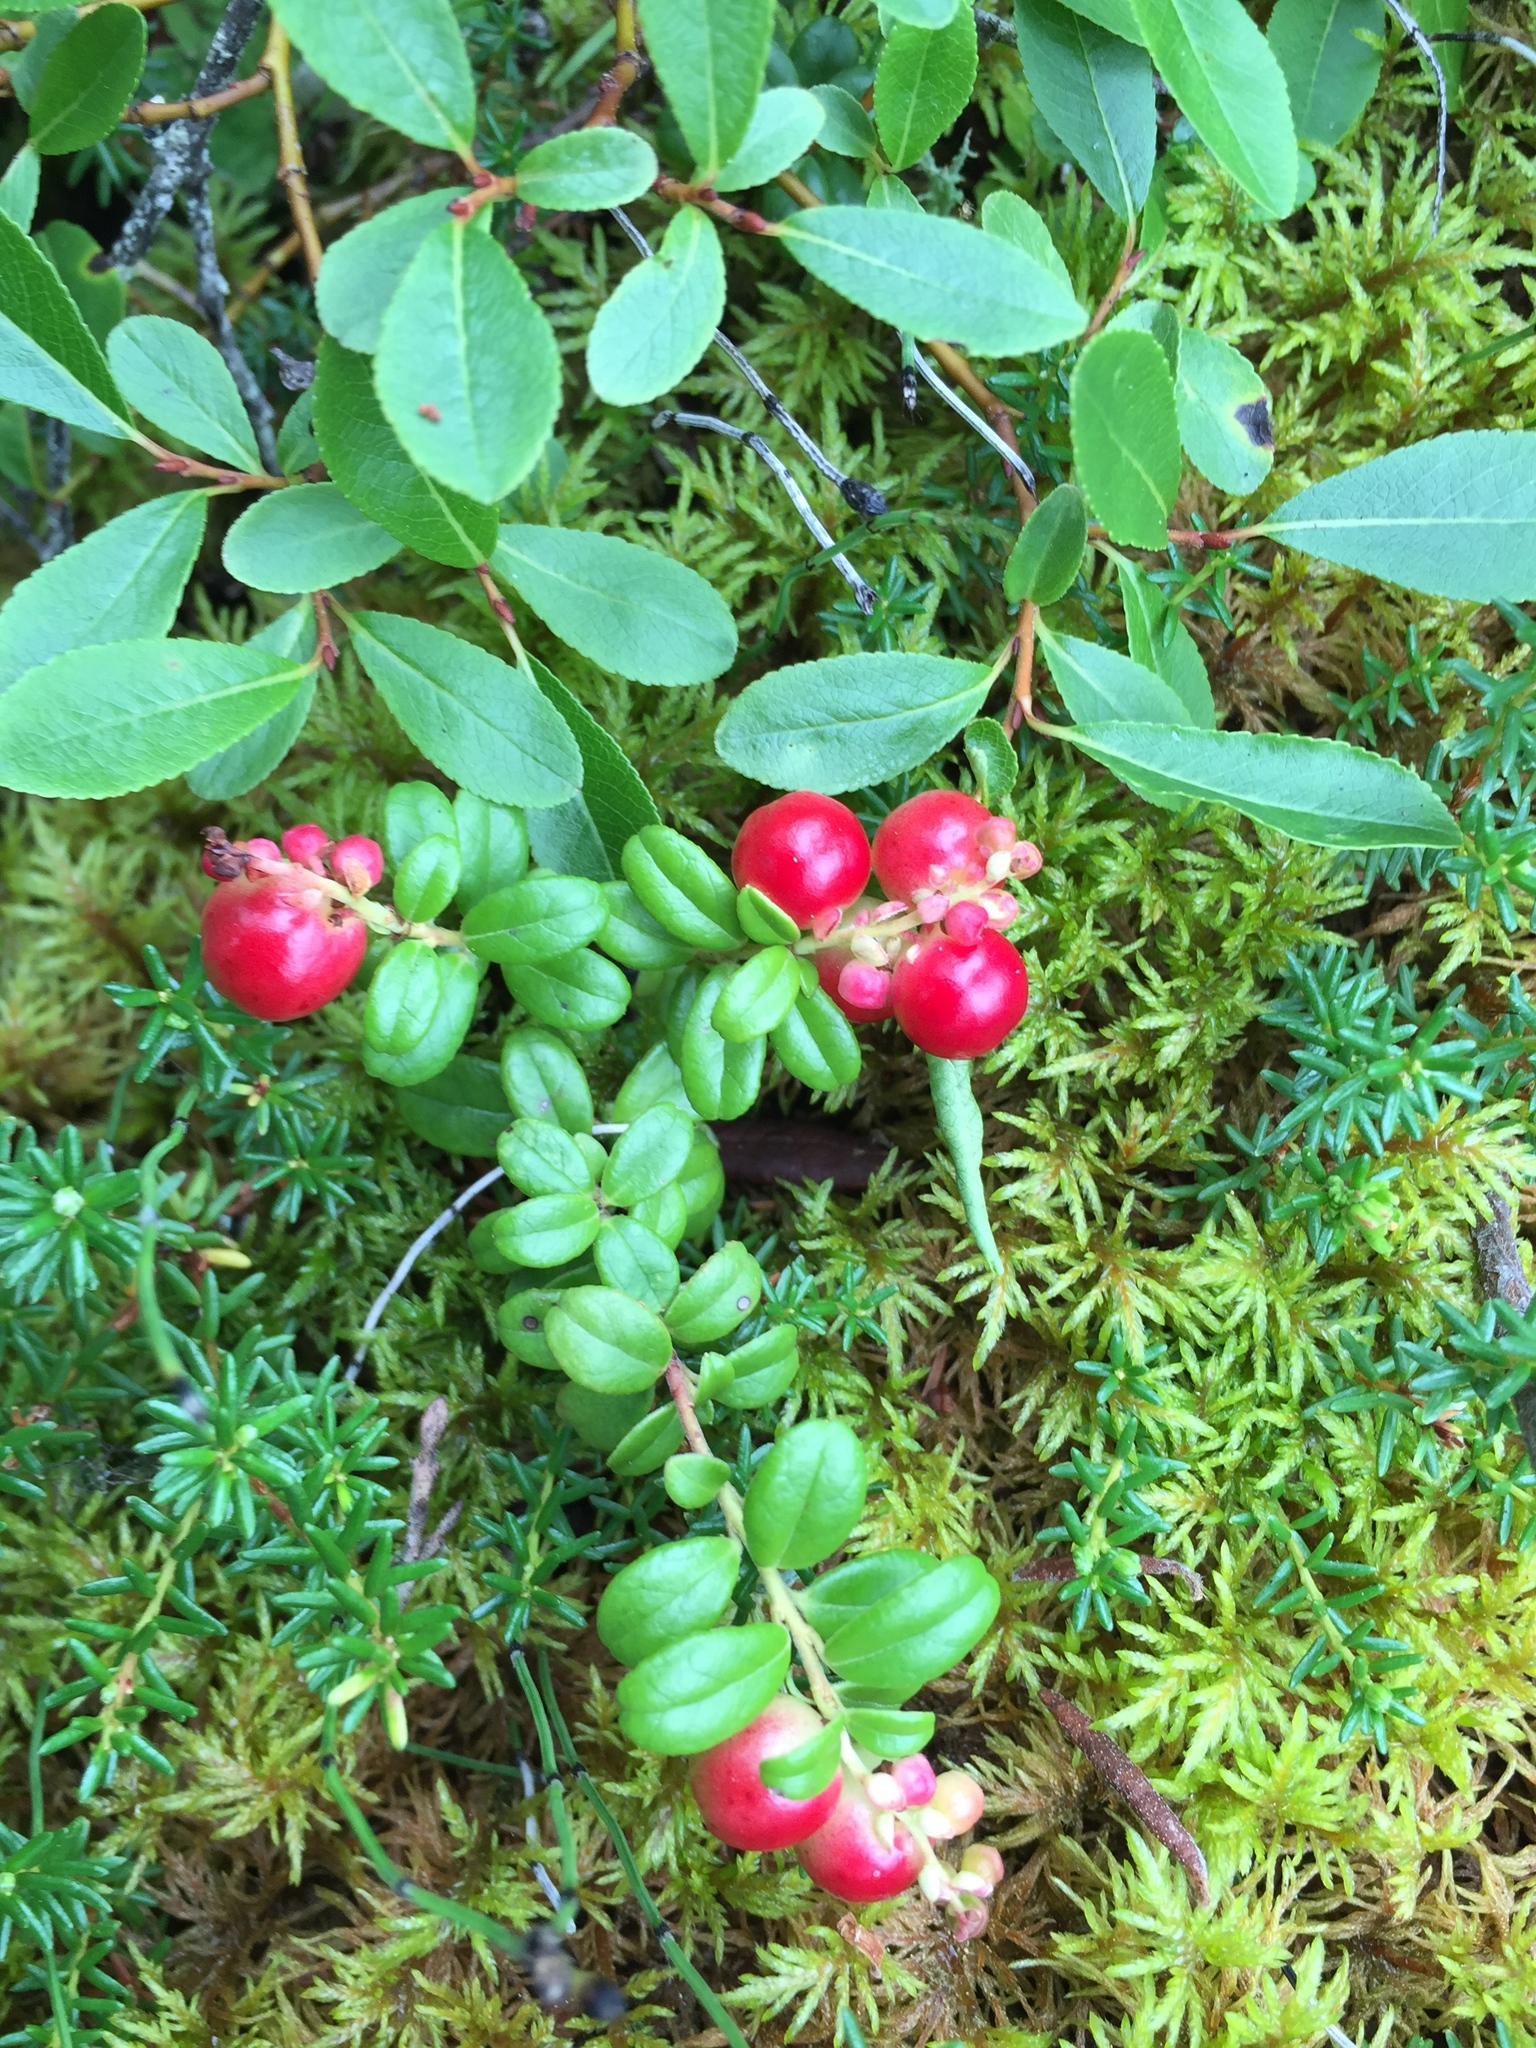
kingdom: Plantae
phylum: Tracheophyta
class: Magnoliopsida
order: Ericales
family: Ericaceae
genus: Vaccinium
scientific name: Vaccinium vitis-idaea
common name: Cowberry
